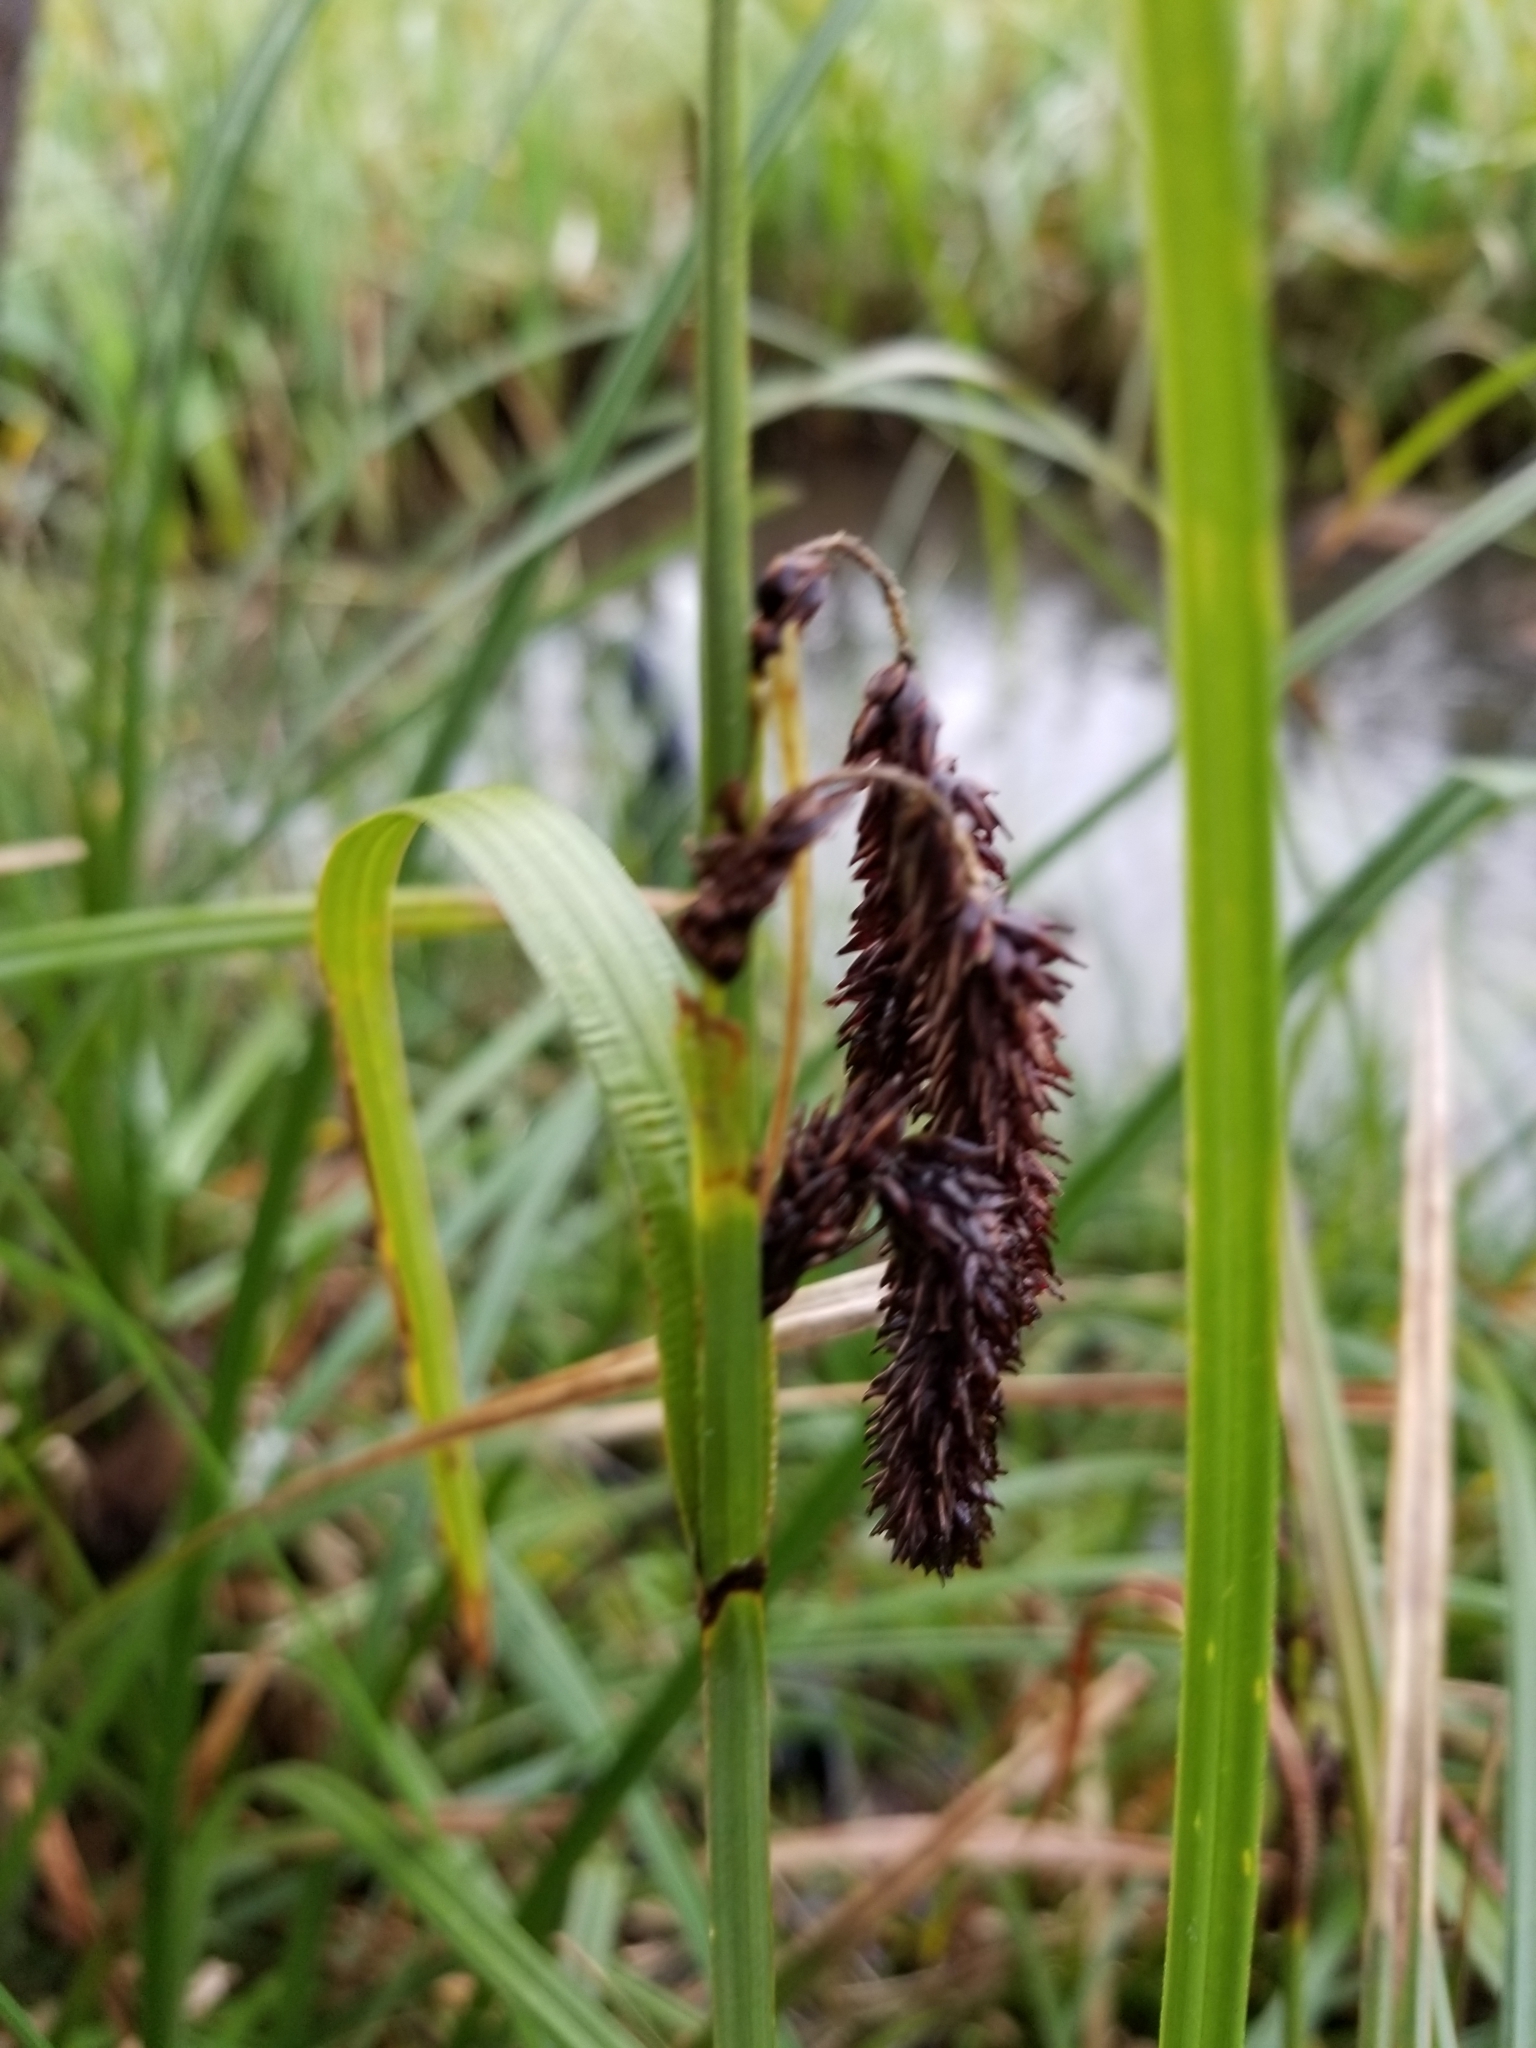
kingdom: Plantae
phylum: Tracheophyta
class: Liliopsida
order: Poales
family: Cyperaceae
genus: Carex
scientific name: Carex obnupta
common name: Slough sedge
